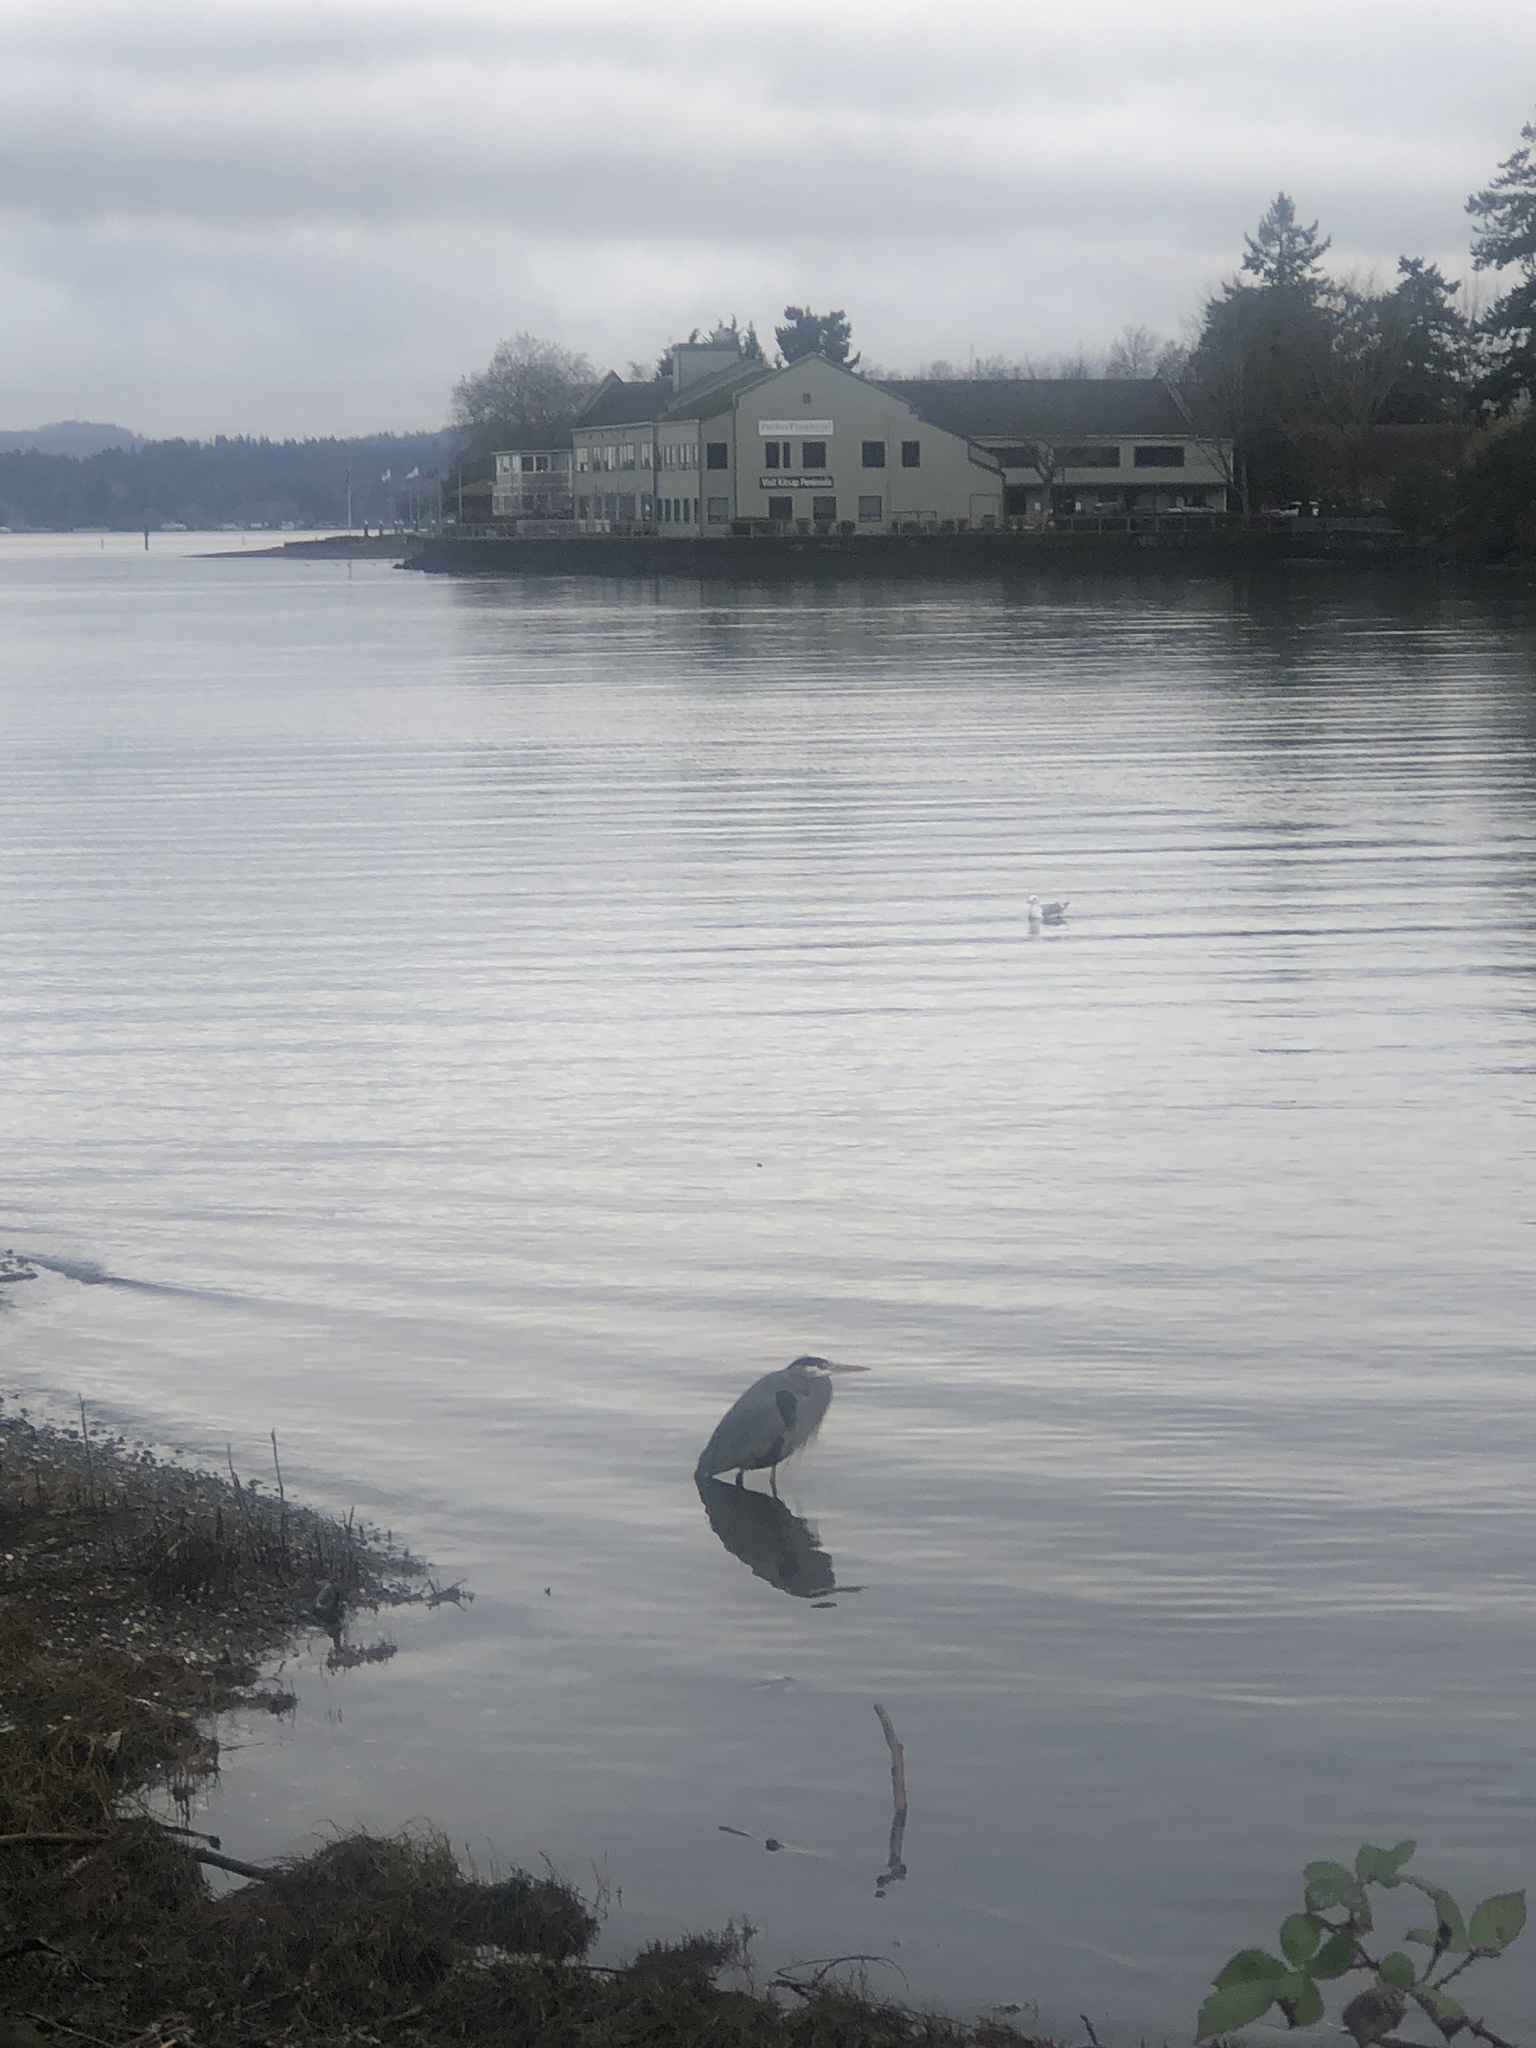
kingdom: Animalia
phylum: Chordata
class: Aves
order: Pelecaniformes
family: Ardeidae
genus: Ardea
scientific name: Ardea herodias
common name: Great blue heron
